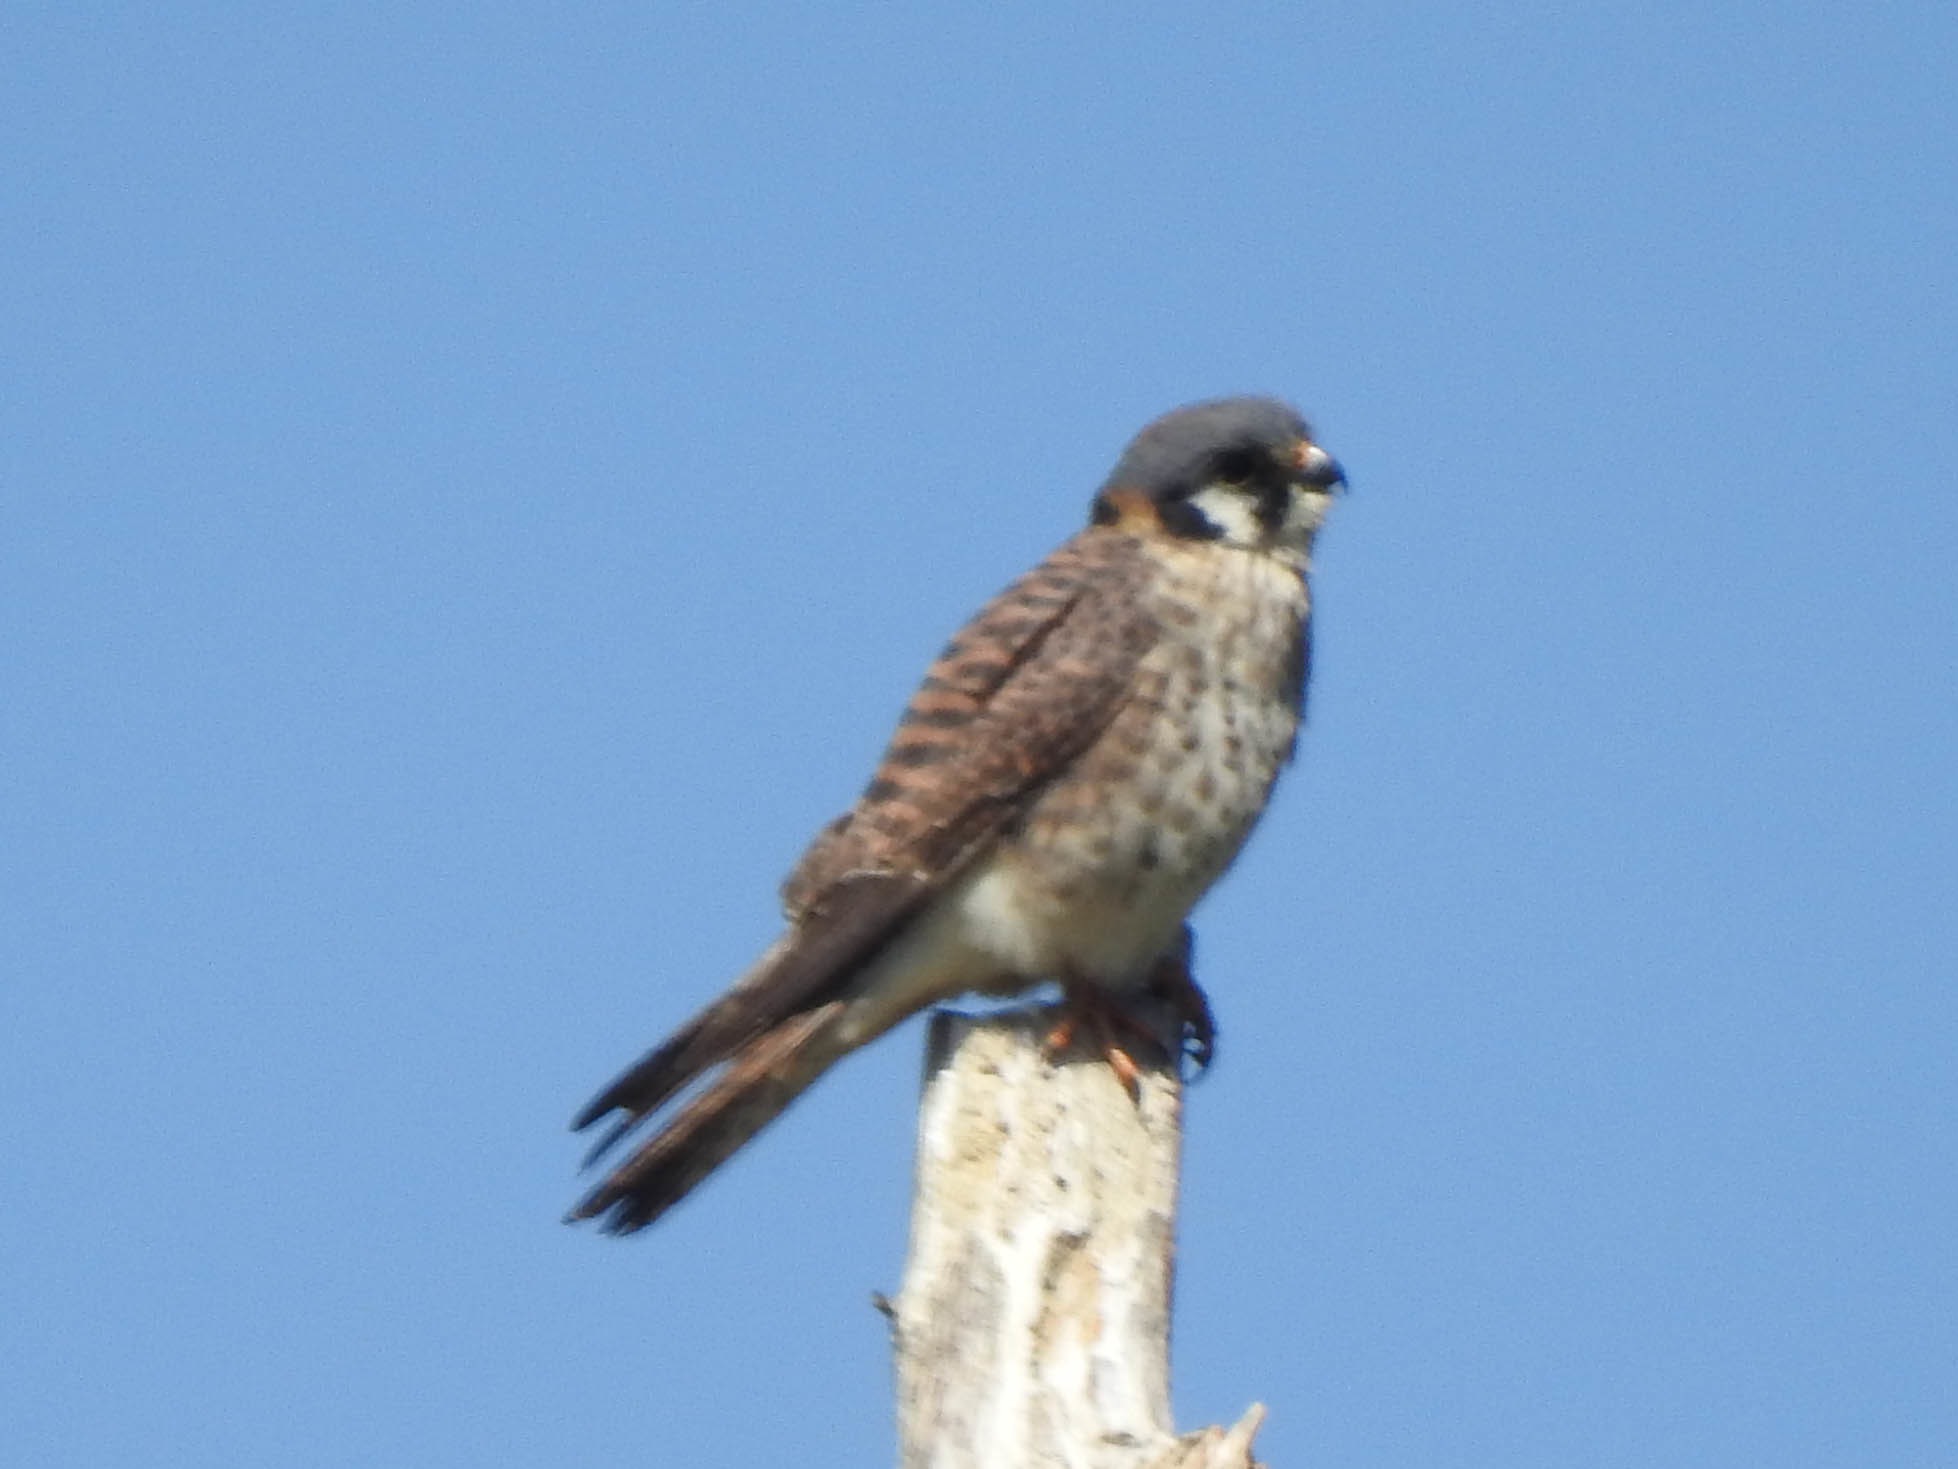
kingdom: Animalia
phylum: Chordata
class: Aves
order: Falconiformes
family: Falconidae
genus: Falco
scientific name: Falco sparverius
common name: American kestrel
